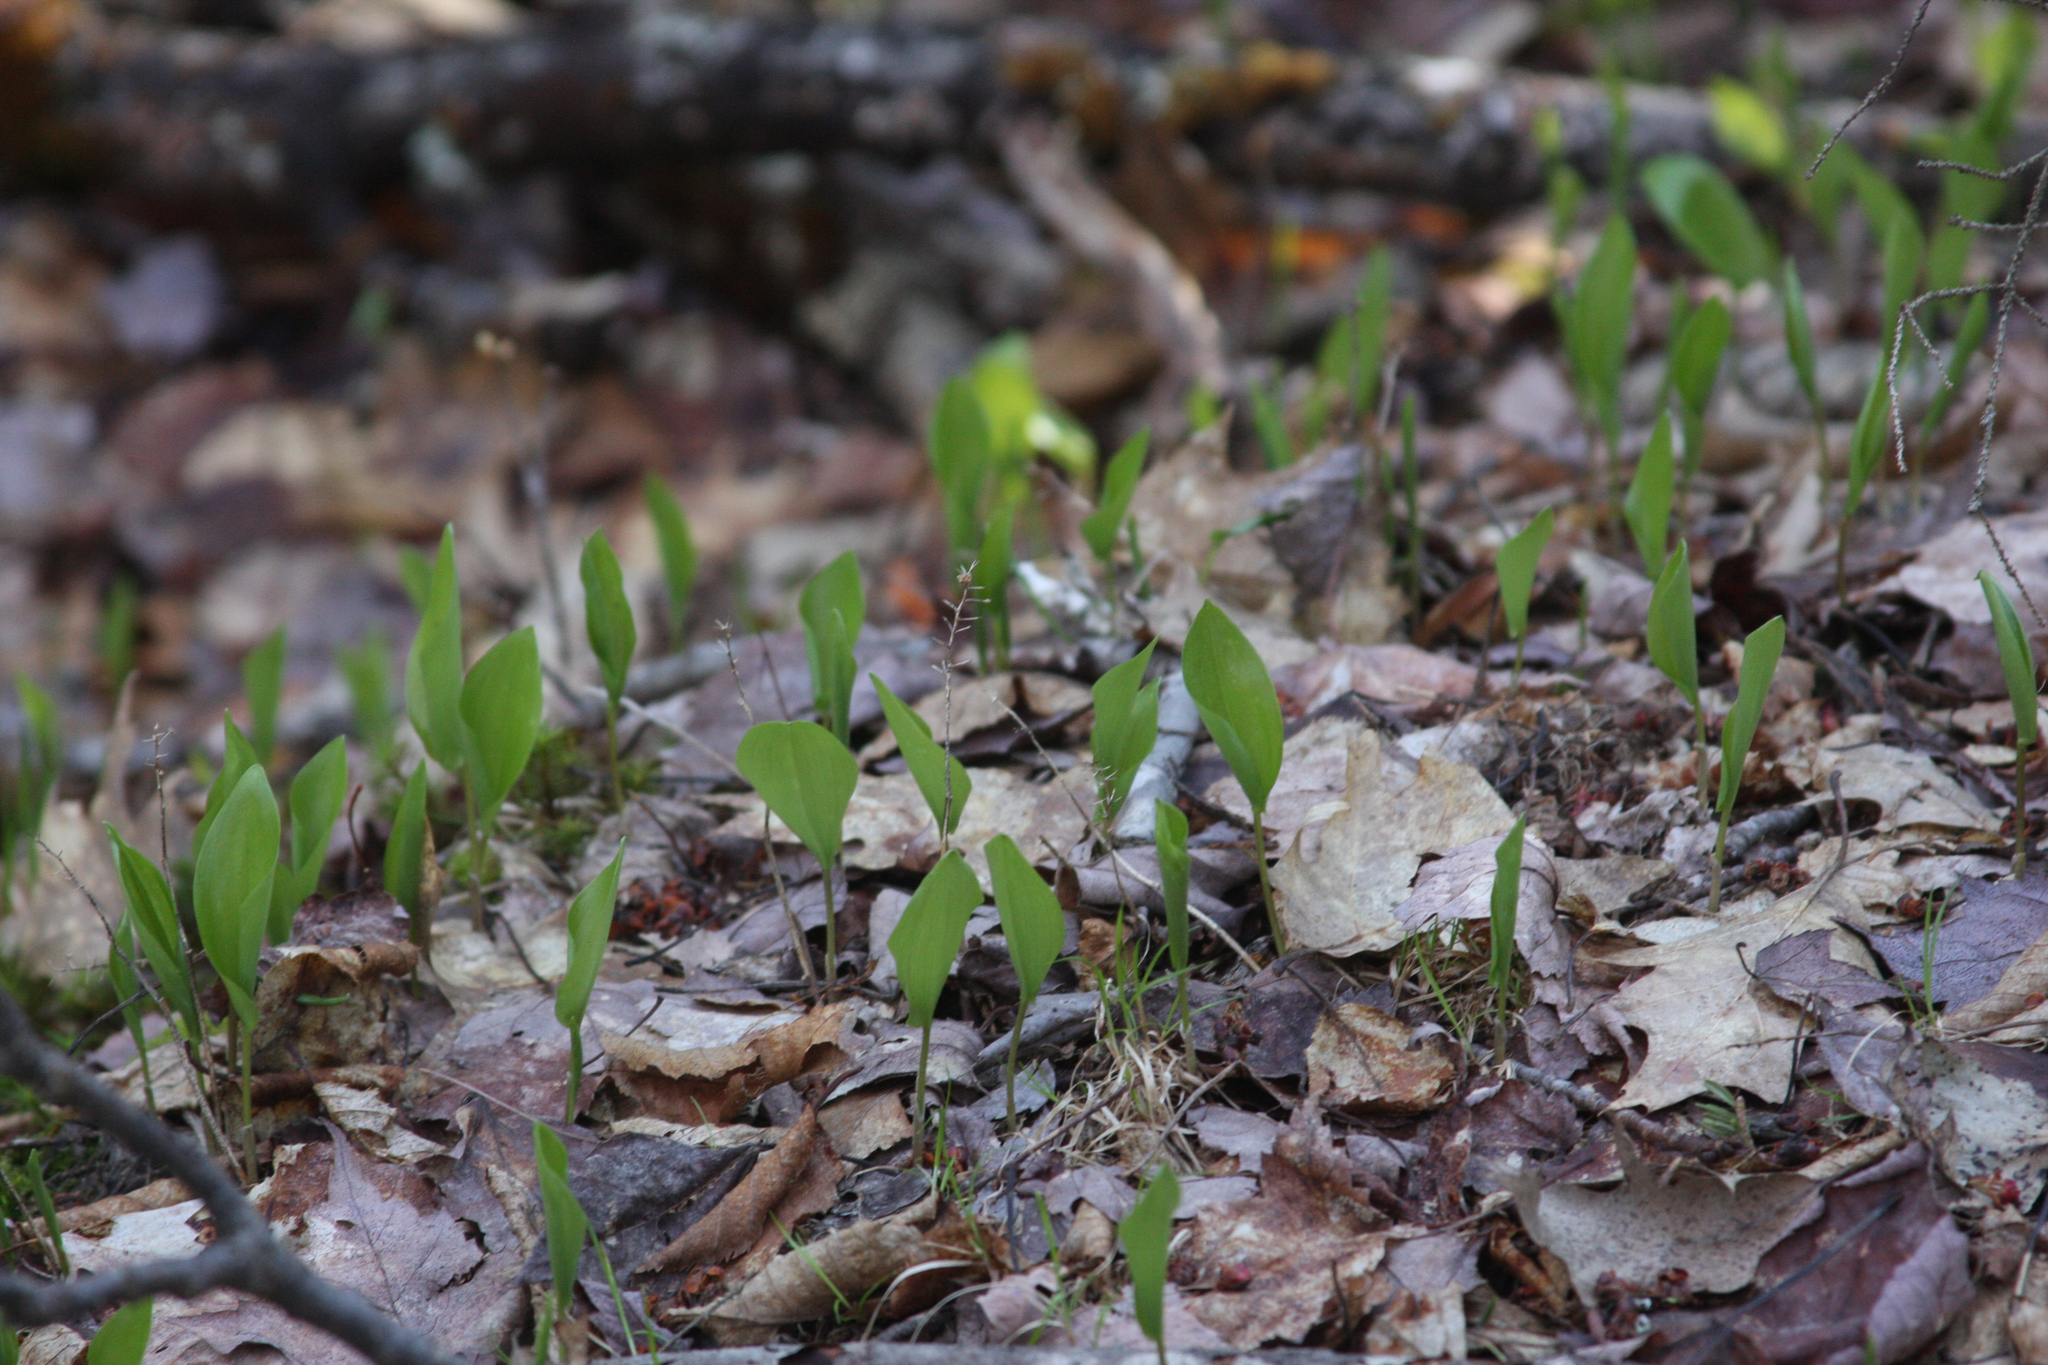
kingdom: Plantae
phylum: Tracheophyta
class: Liliopsida
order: Asparagales
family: Asparagaceae
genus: Maianthemum
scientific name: Maianthemum canadense
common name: False lily-of-the-valley
